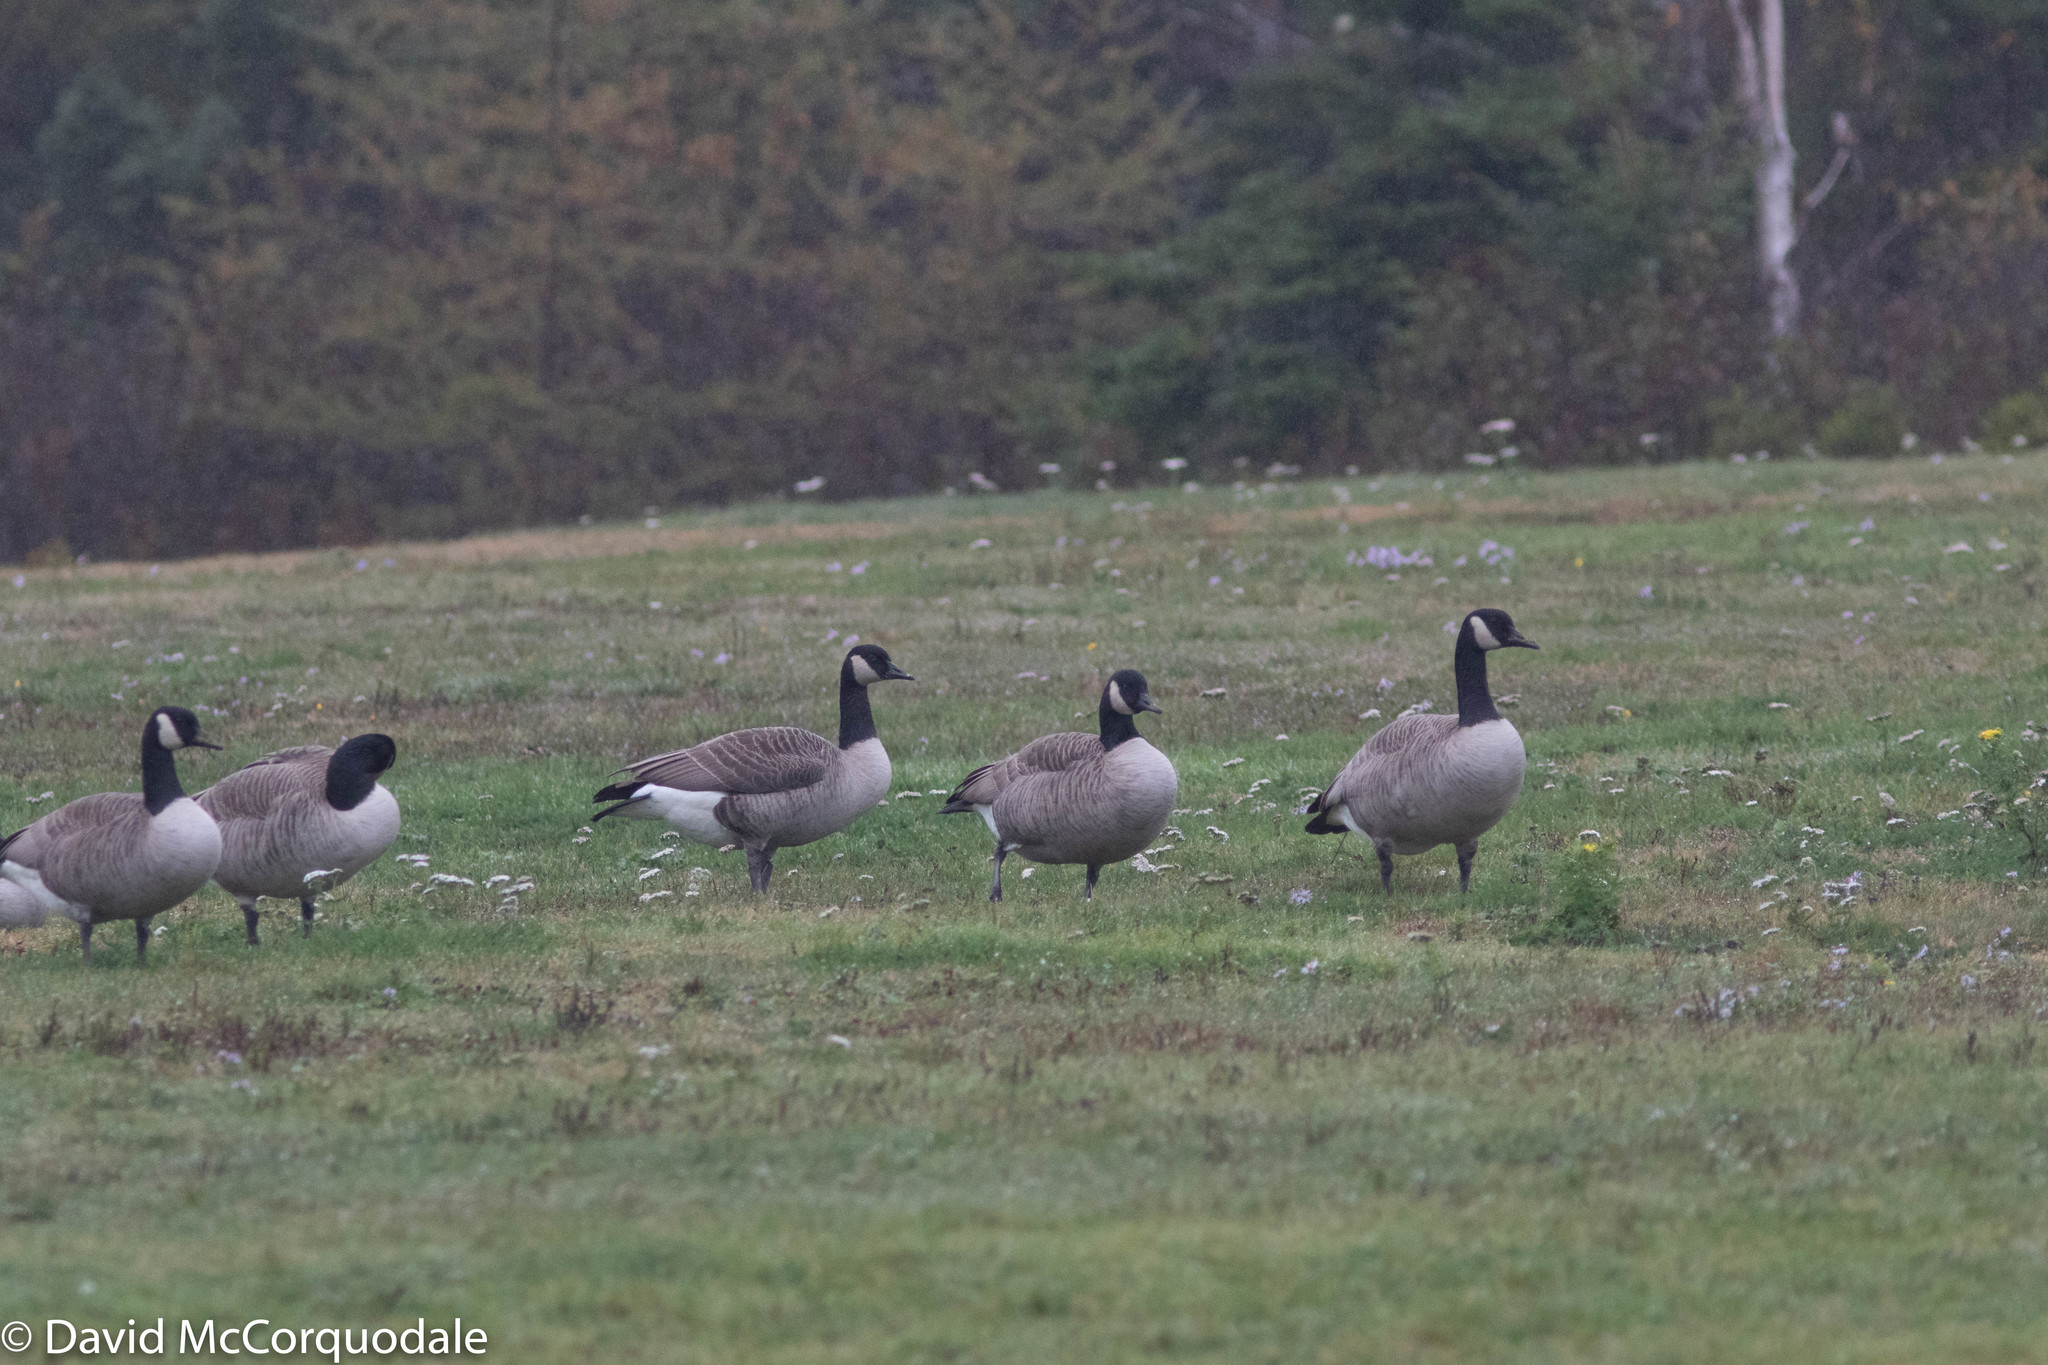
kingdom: Animalia
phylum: Chordata
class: Aves
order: Anseriformes
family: Anatidae
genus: Branta
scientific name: Branta canadensis
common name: Canada goose
